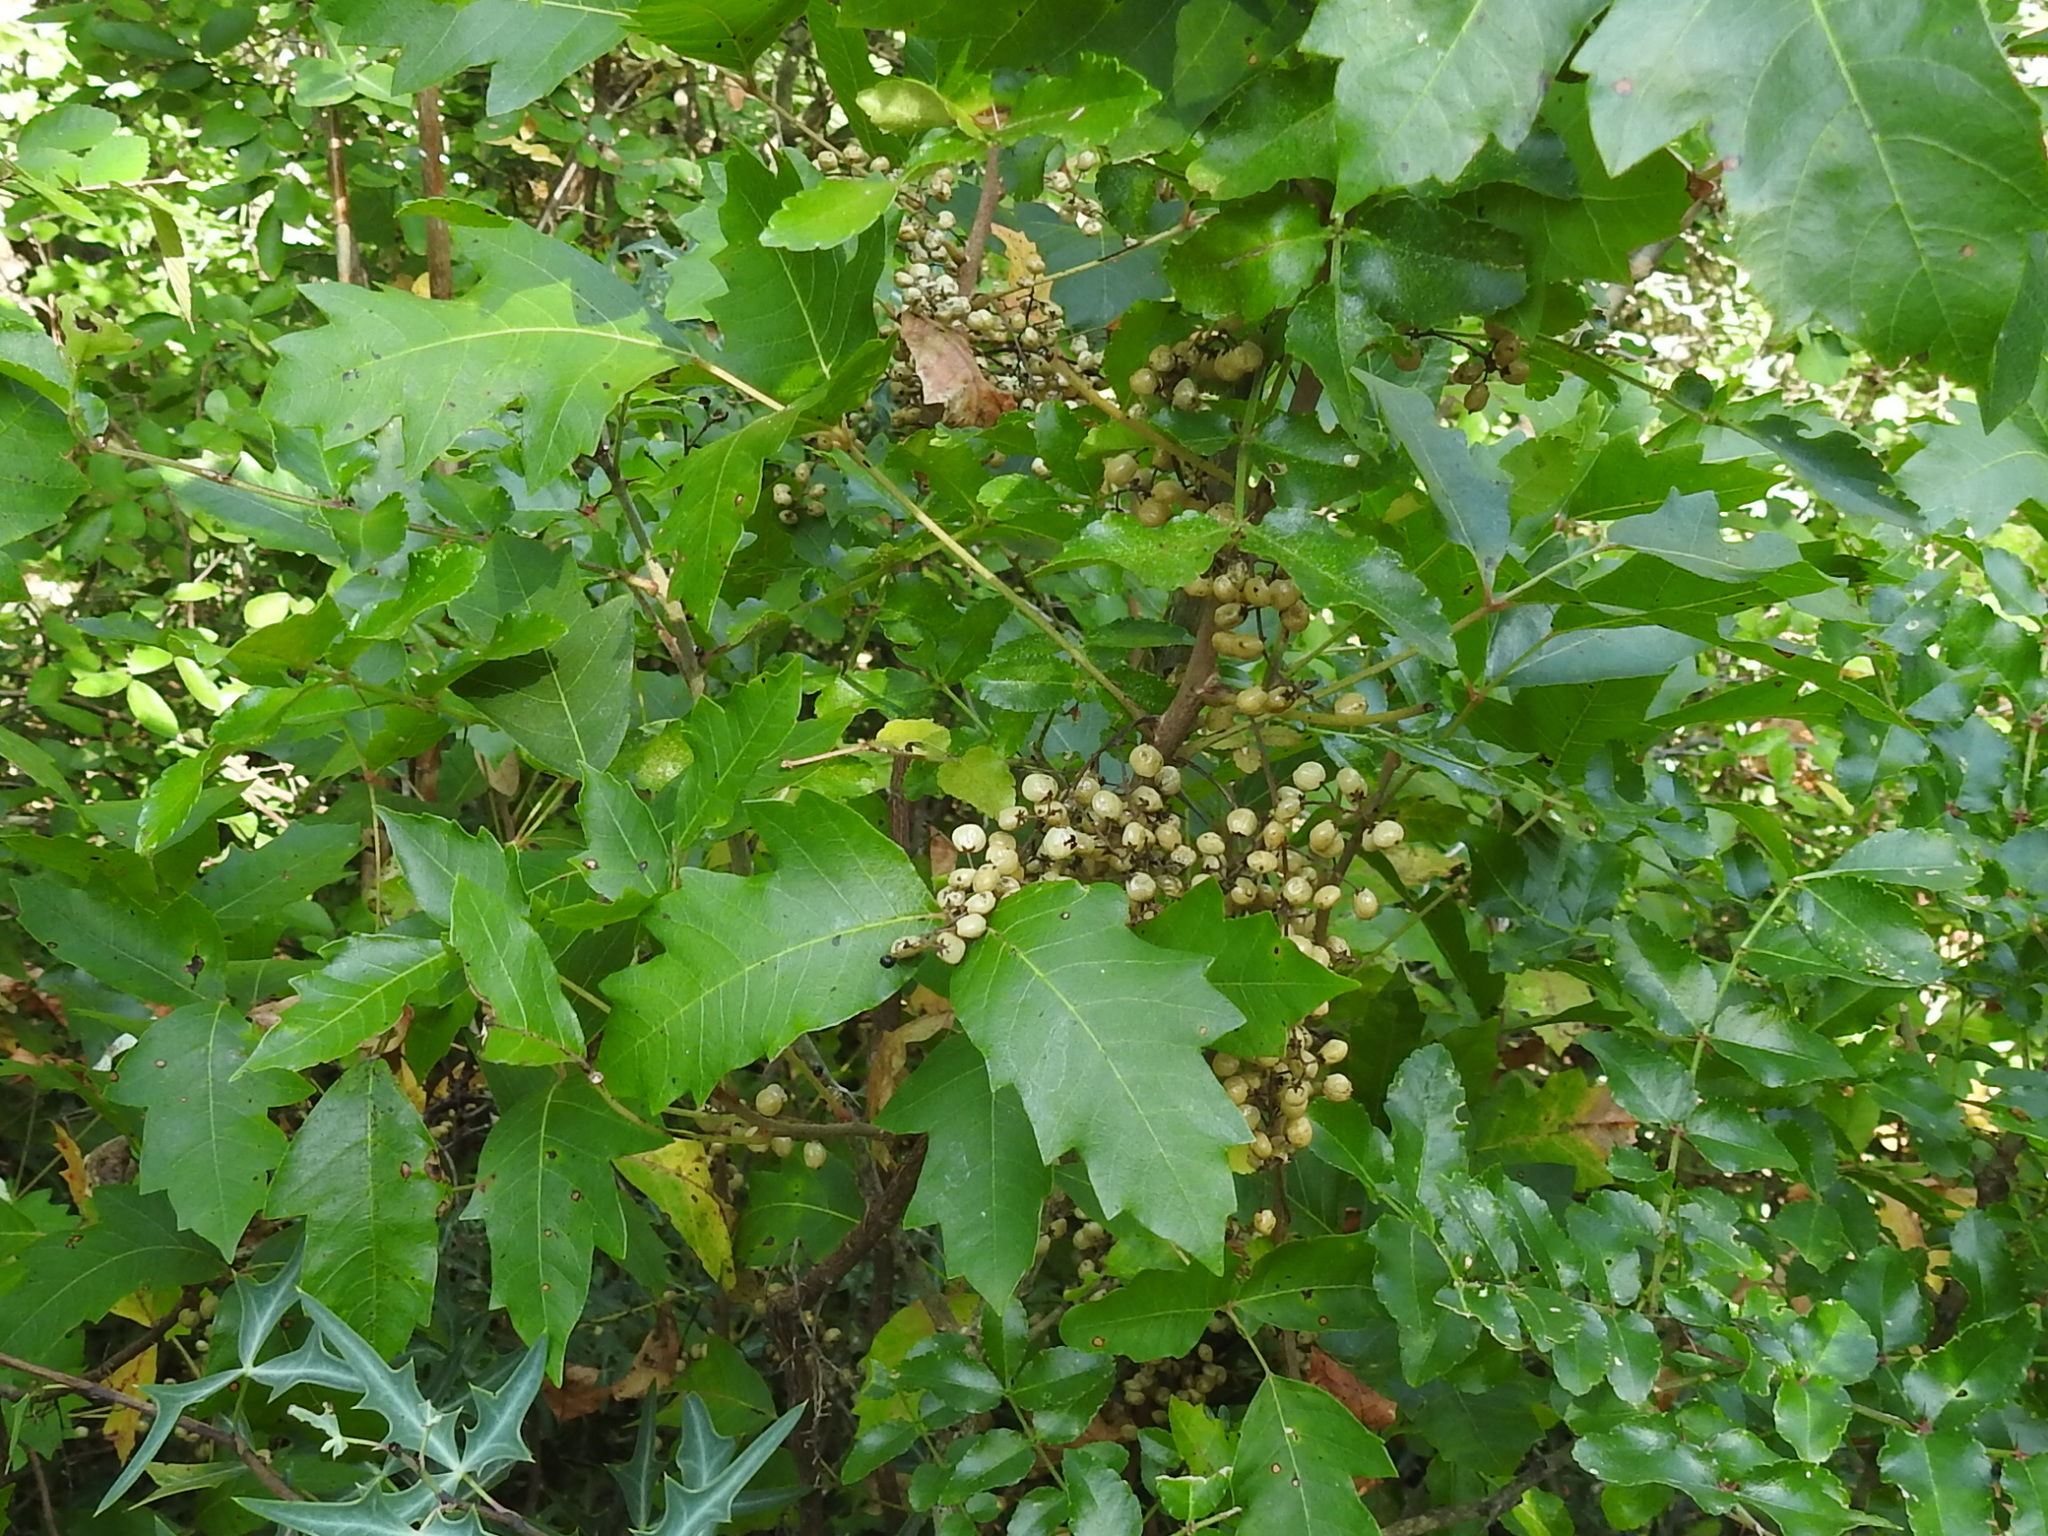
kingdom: Plantae
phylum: Tracheophyta
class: Magnoliopsida
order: Sapindales
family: Anacardiaceae
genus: Toxicodendron
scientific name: Toxicodendron radicans
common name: Poison ivy
